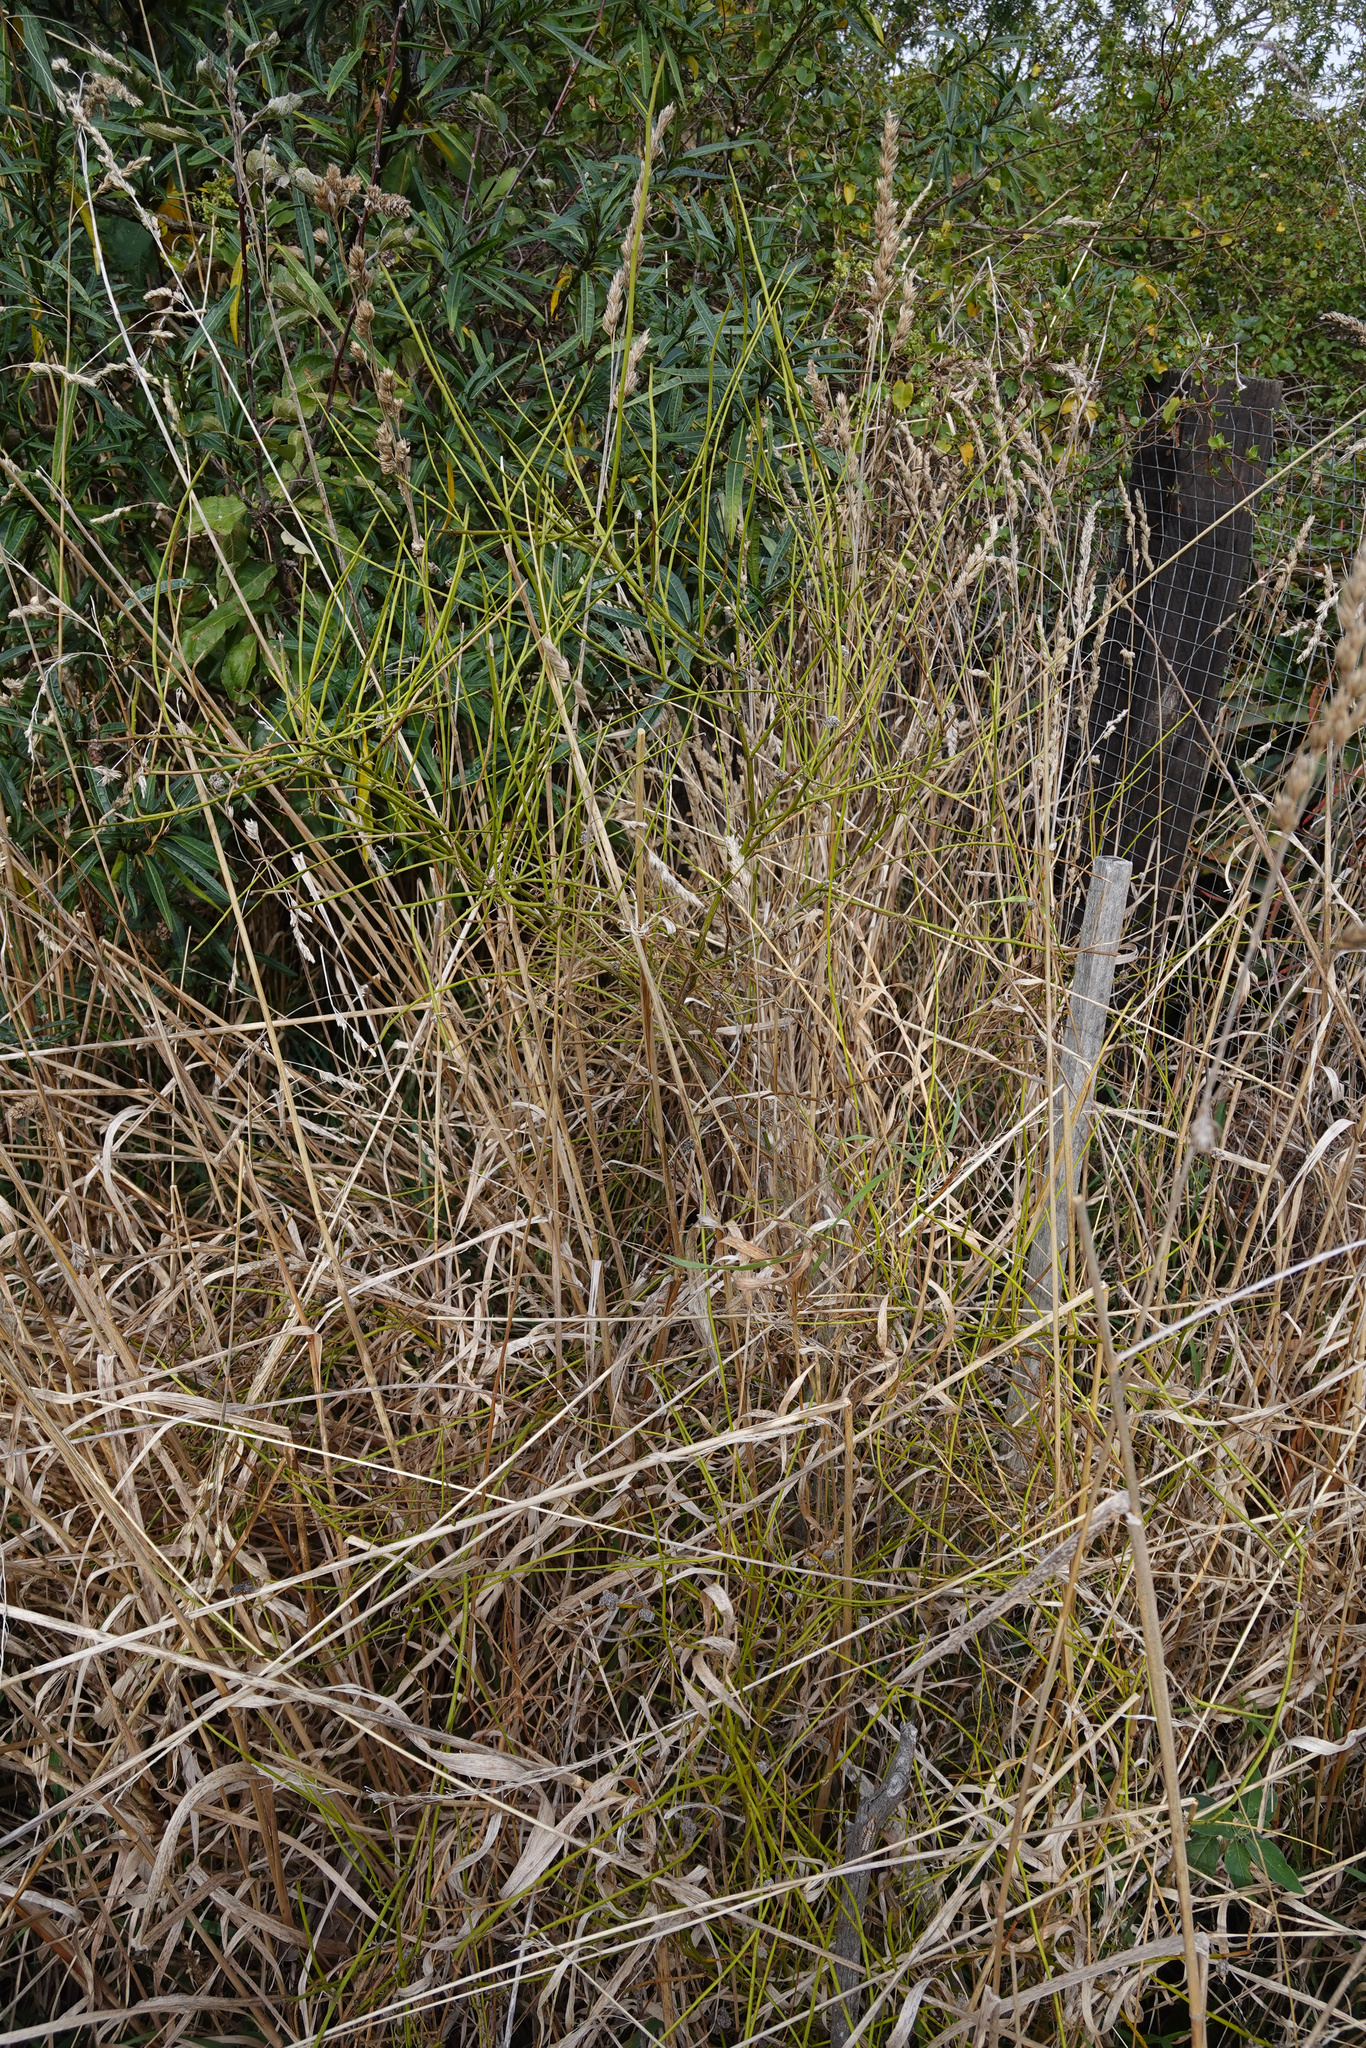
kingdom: Plantae
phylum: Tracheophyta
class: Magnoliopsida
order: Fabales
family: Fabaceae
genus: Carmichaelia
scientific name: Carmichaelia australis
